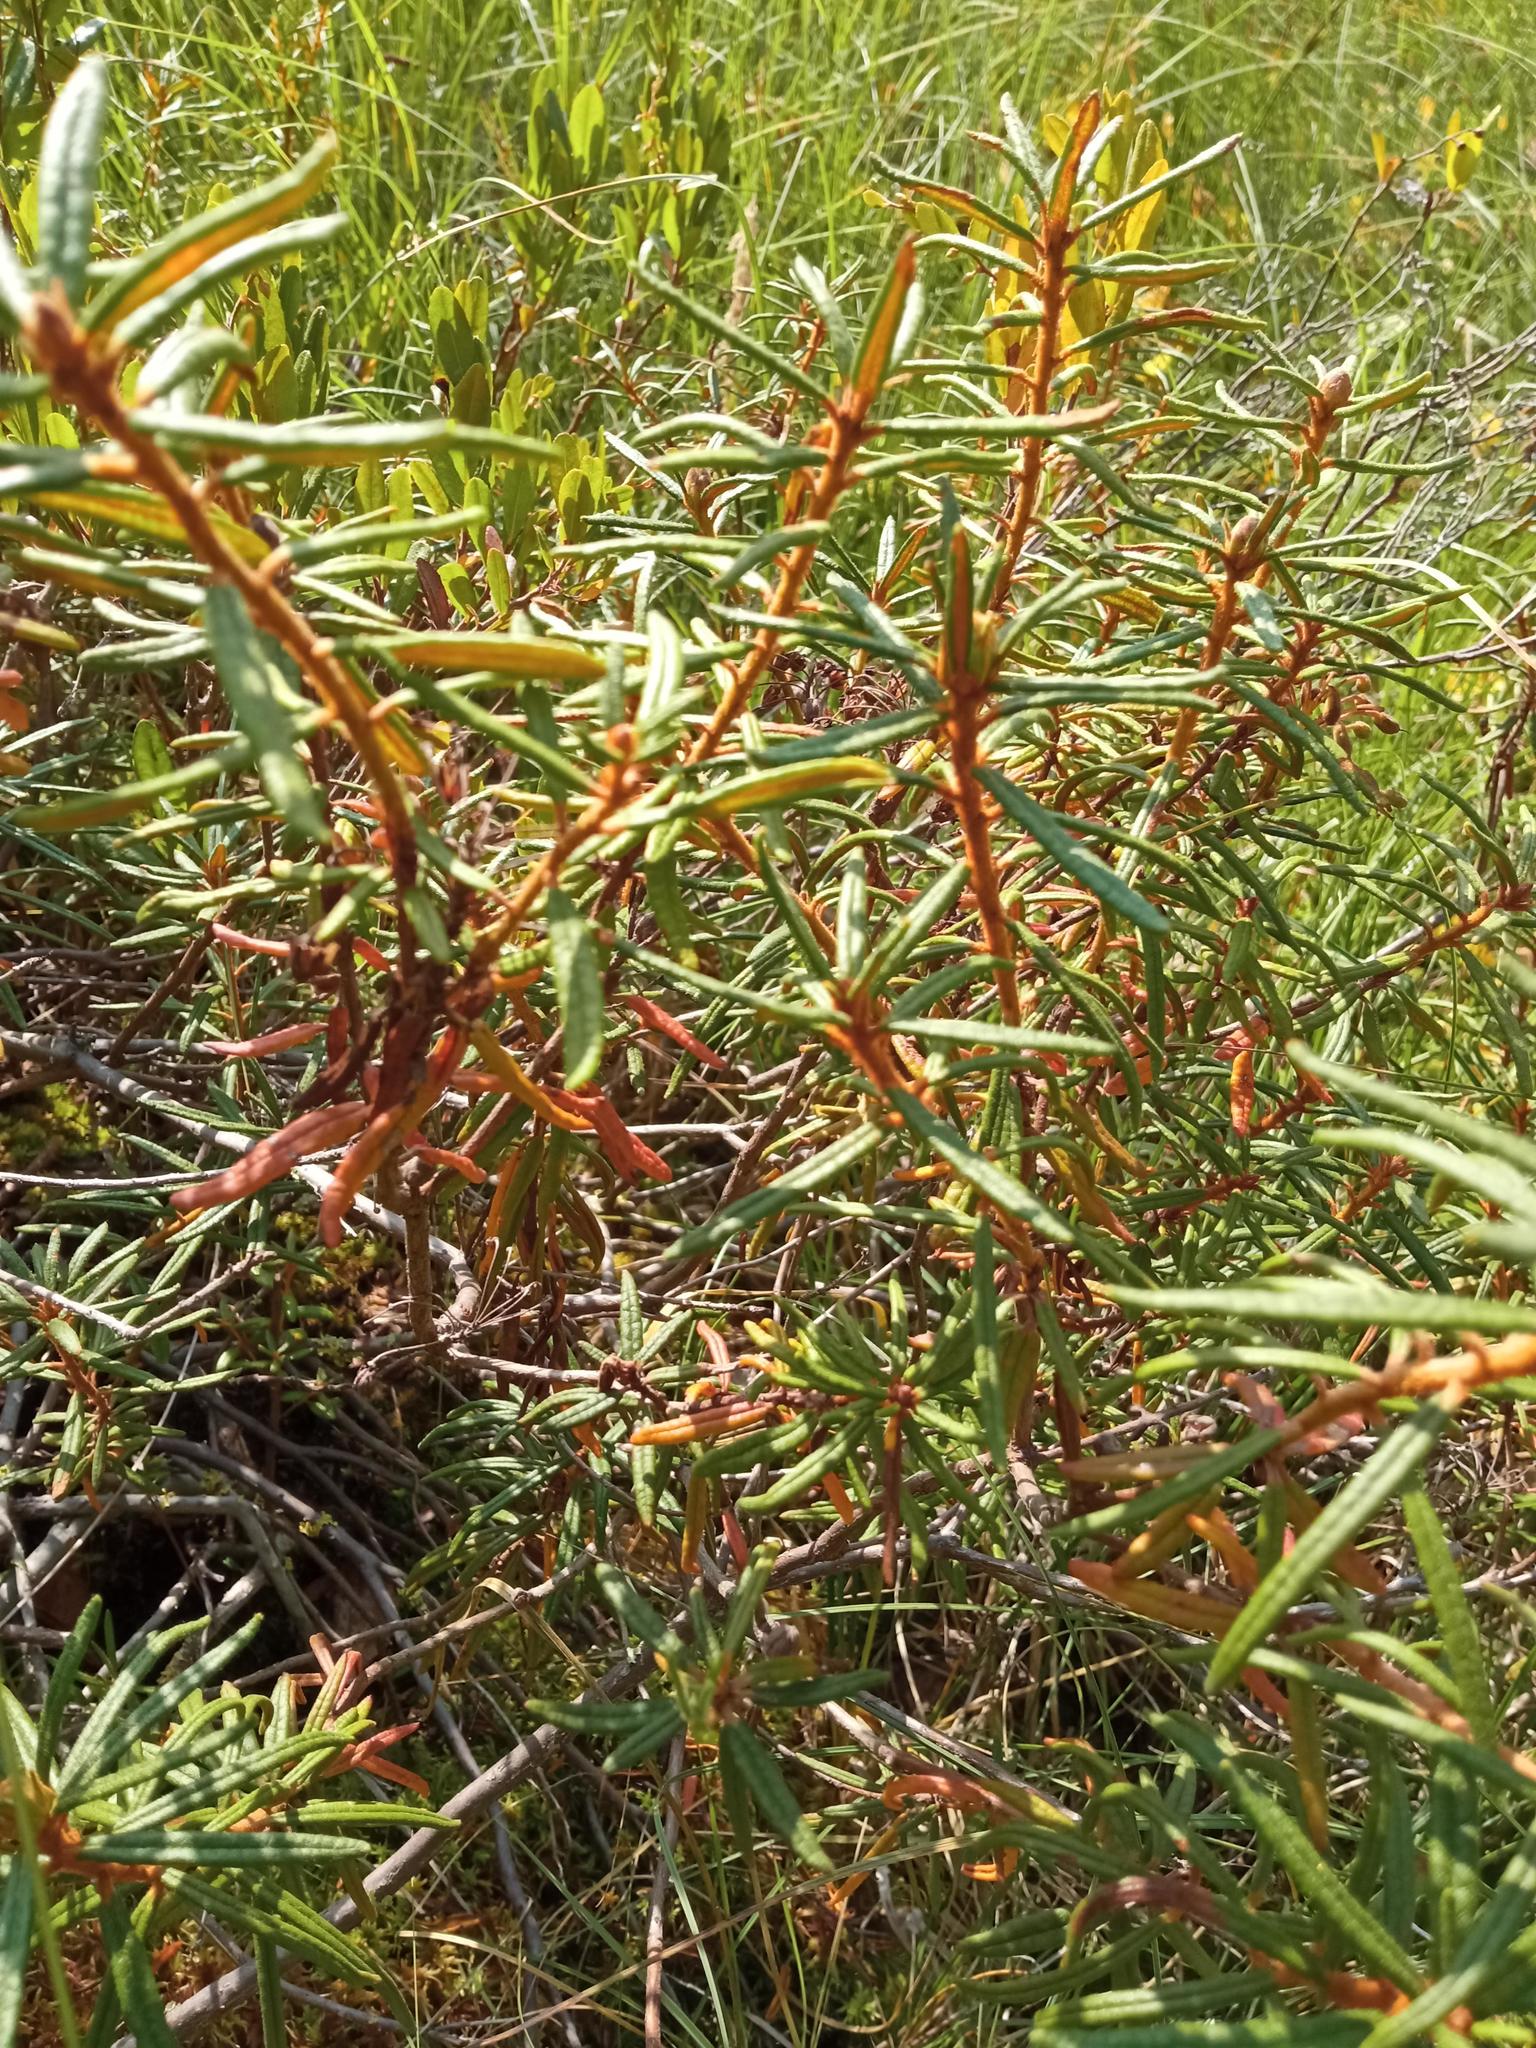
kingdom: Plantae
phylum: Tracheophyta
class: Magnoliopsida
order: Ericales
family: Ericaceae
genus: Rhododendron
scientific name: Rhododendron tomentosum
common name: Marsh labrador tea
